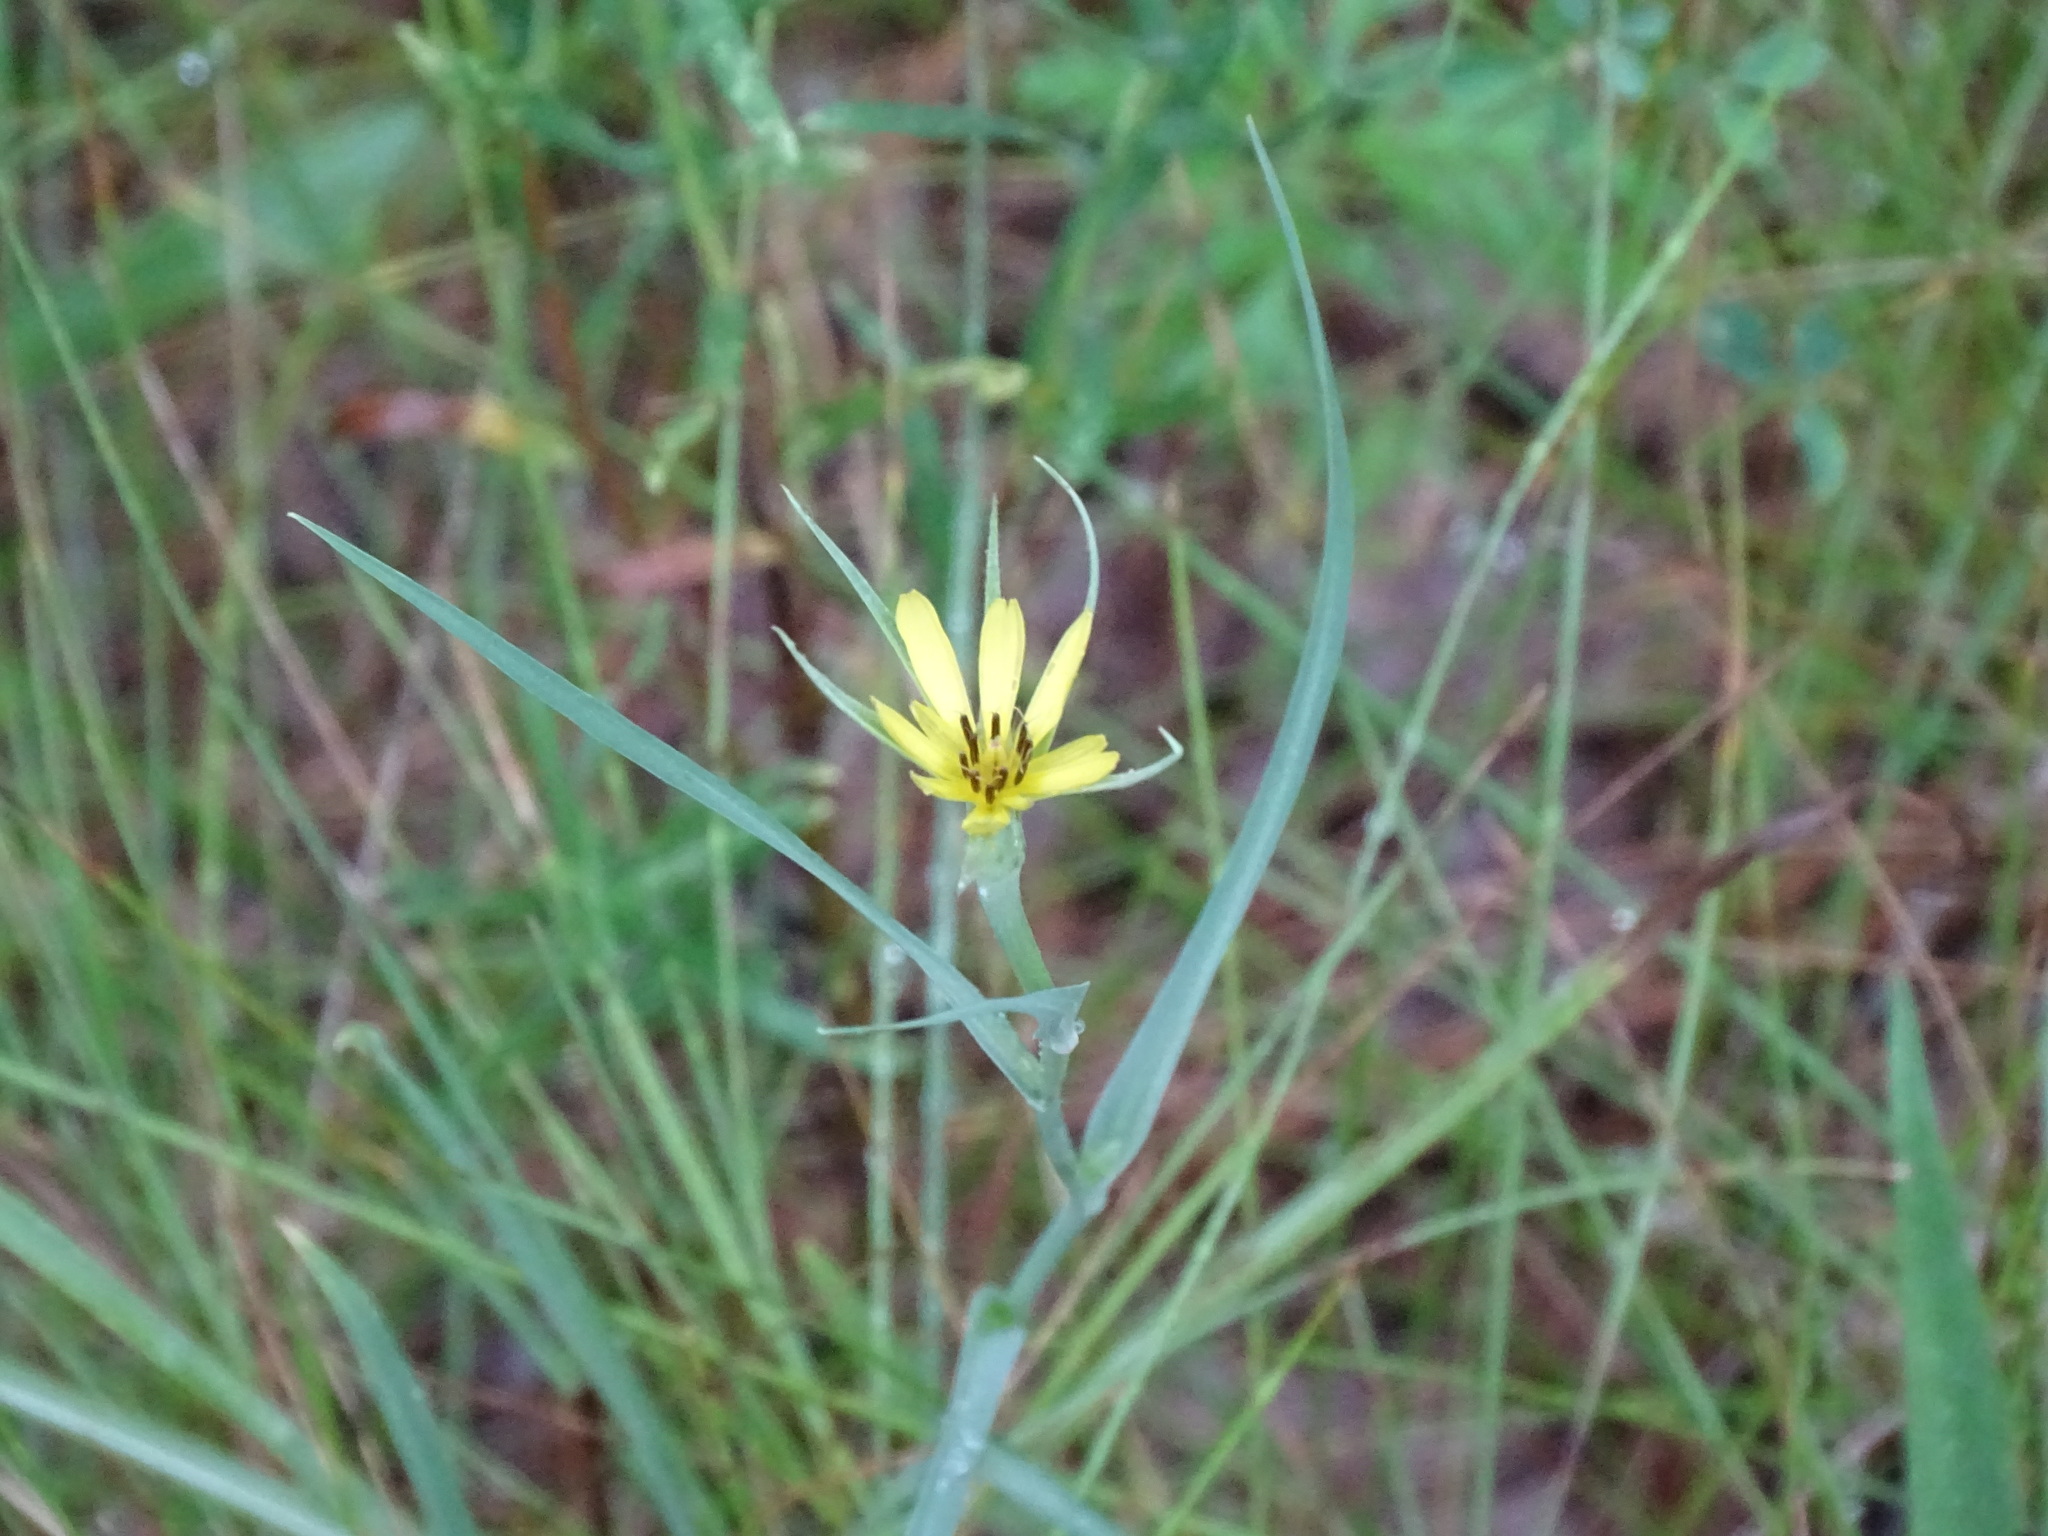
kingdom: Plantae
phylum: Tracheophyta
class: Magnoliopsida
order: Asterales
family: Asteraceae
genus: Tragopogon
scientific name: Tragopogon dubius
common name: Yellow salsify
